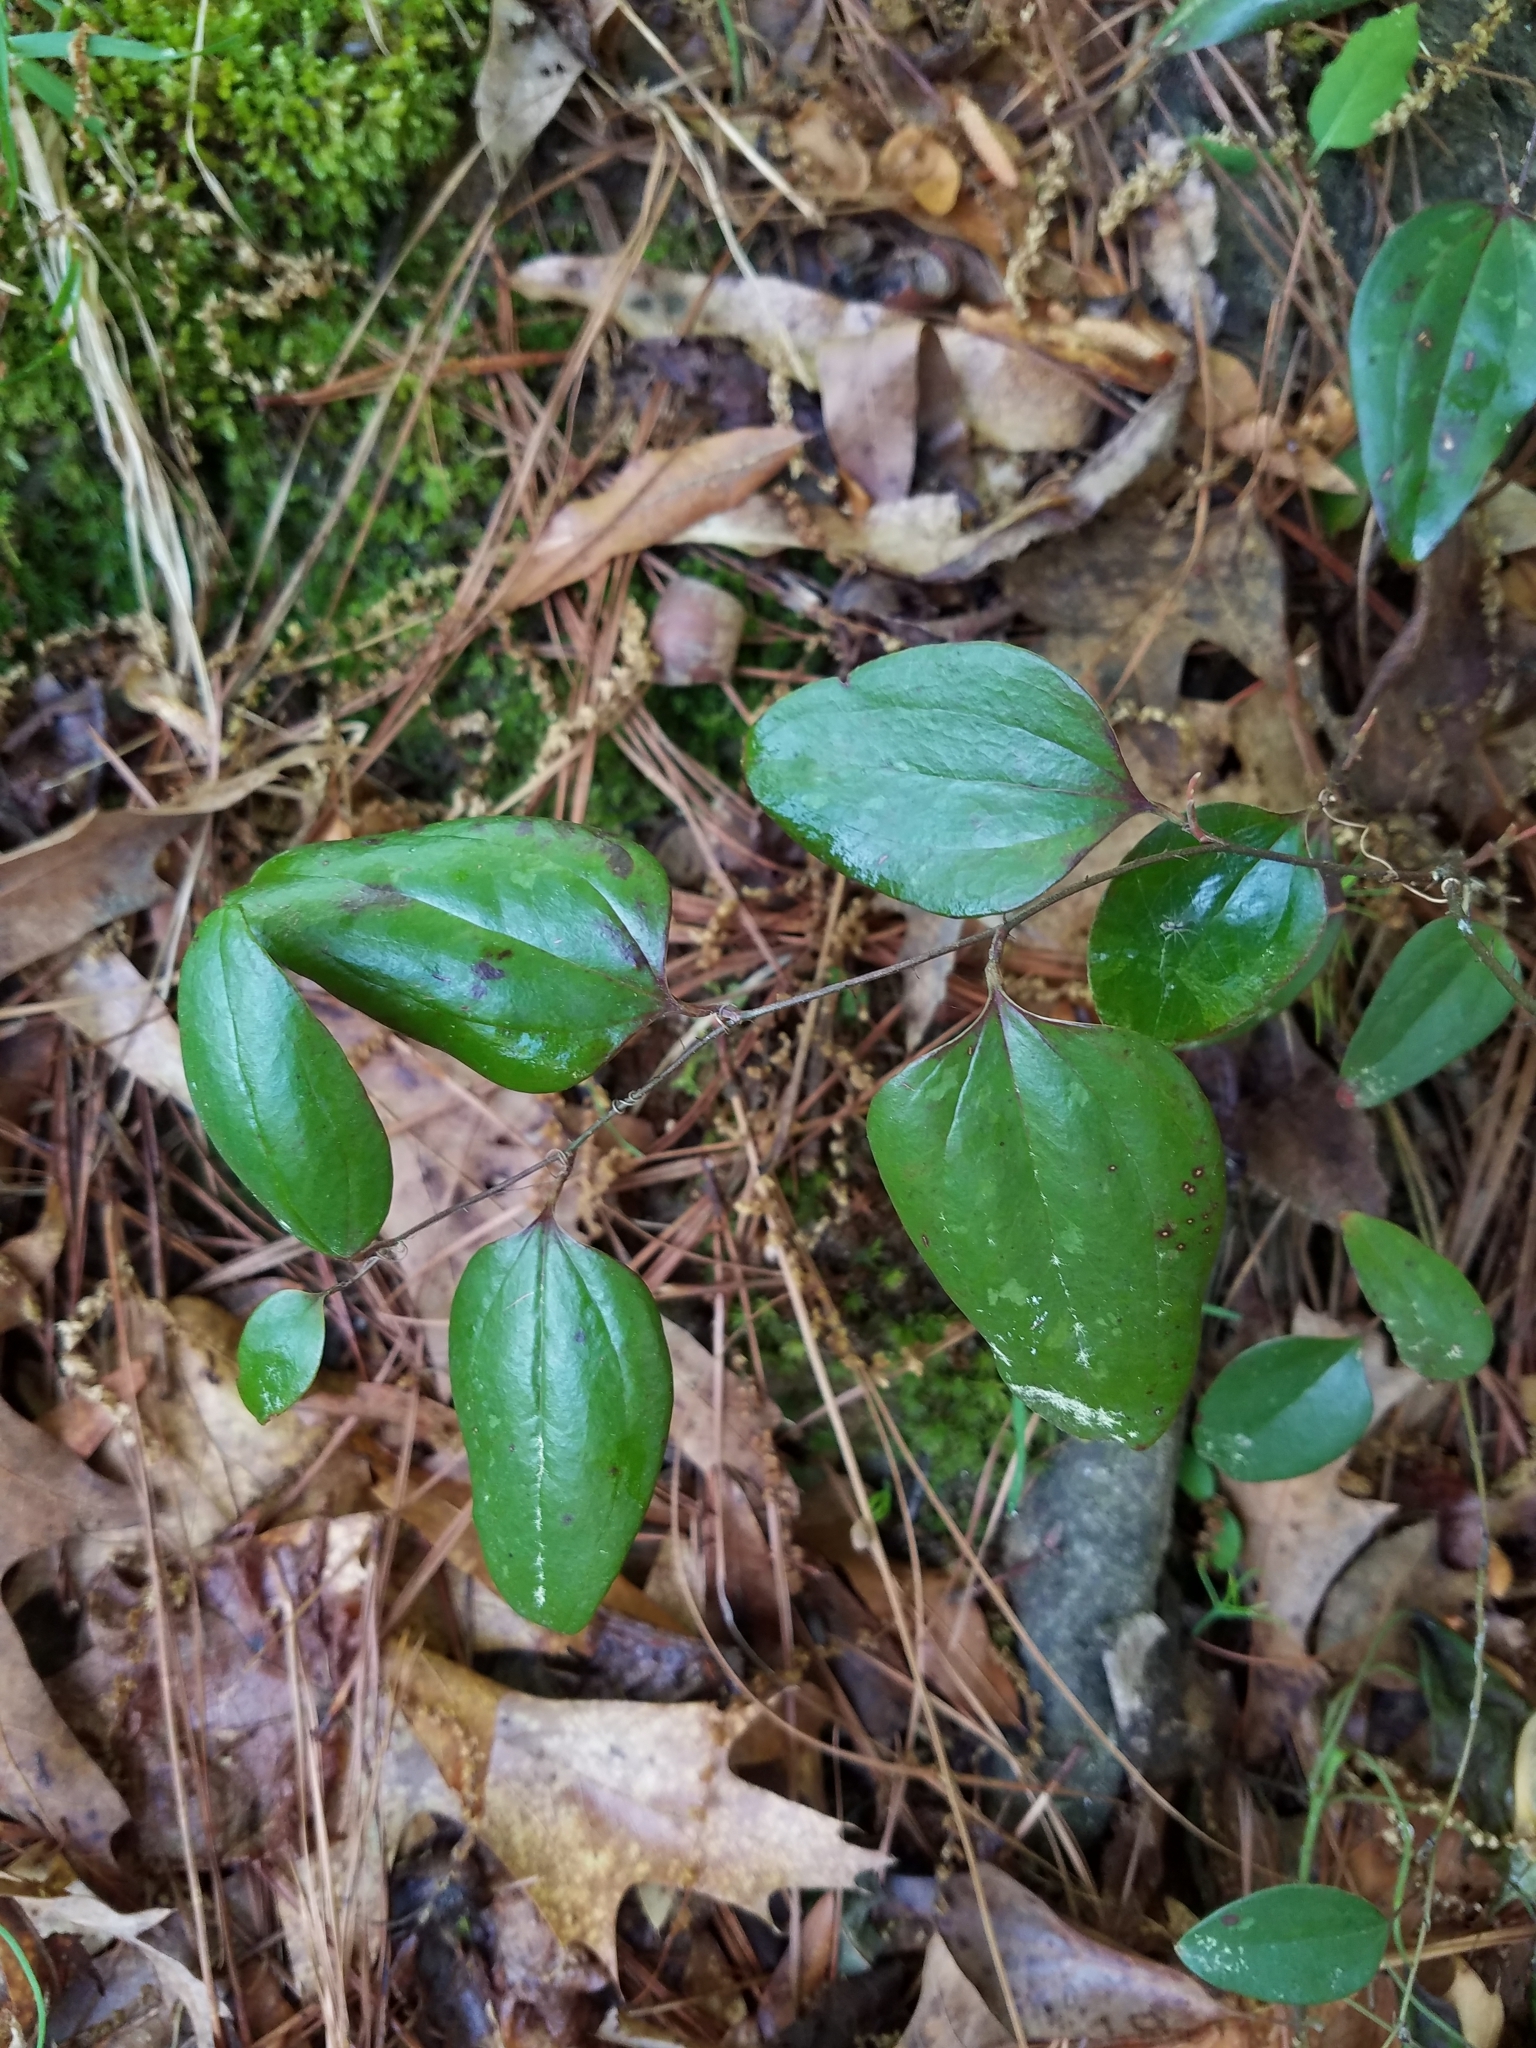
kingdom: Plantae
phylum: Tracheophyta
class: Liliopsida
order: Liliales
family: Smilacaceae
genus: Smilax
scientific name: Smilax glauca
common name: Cat greenbrier
